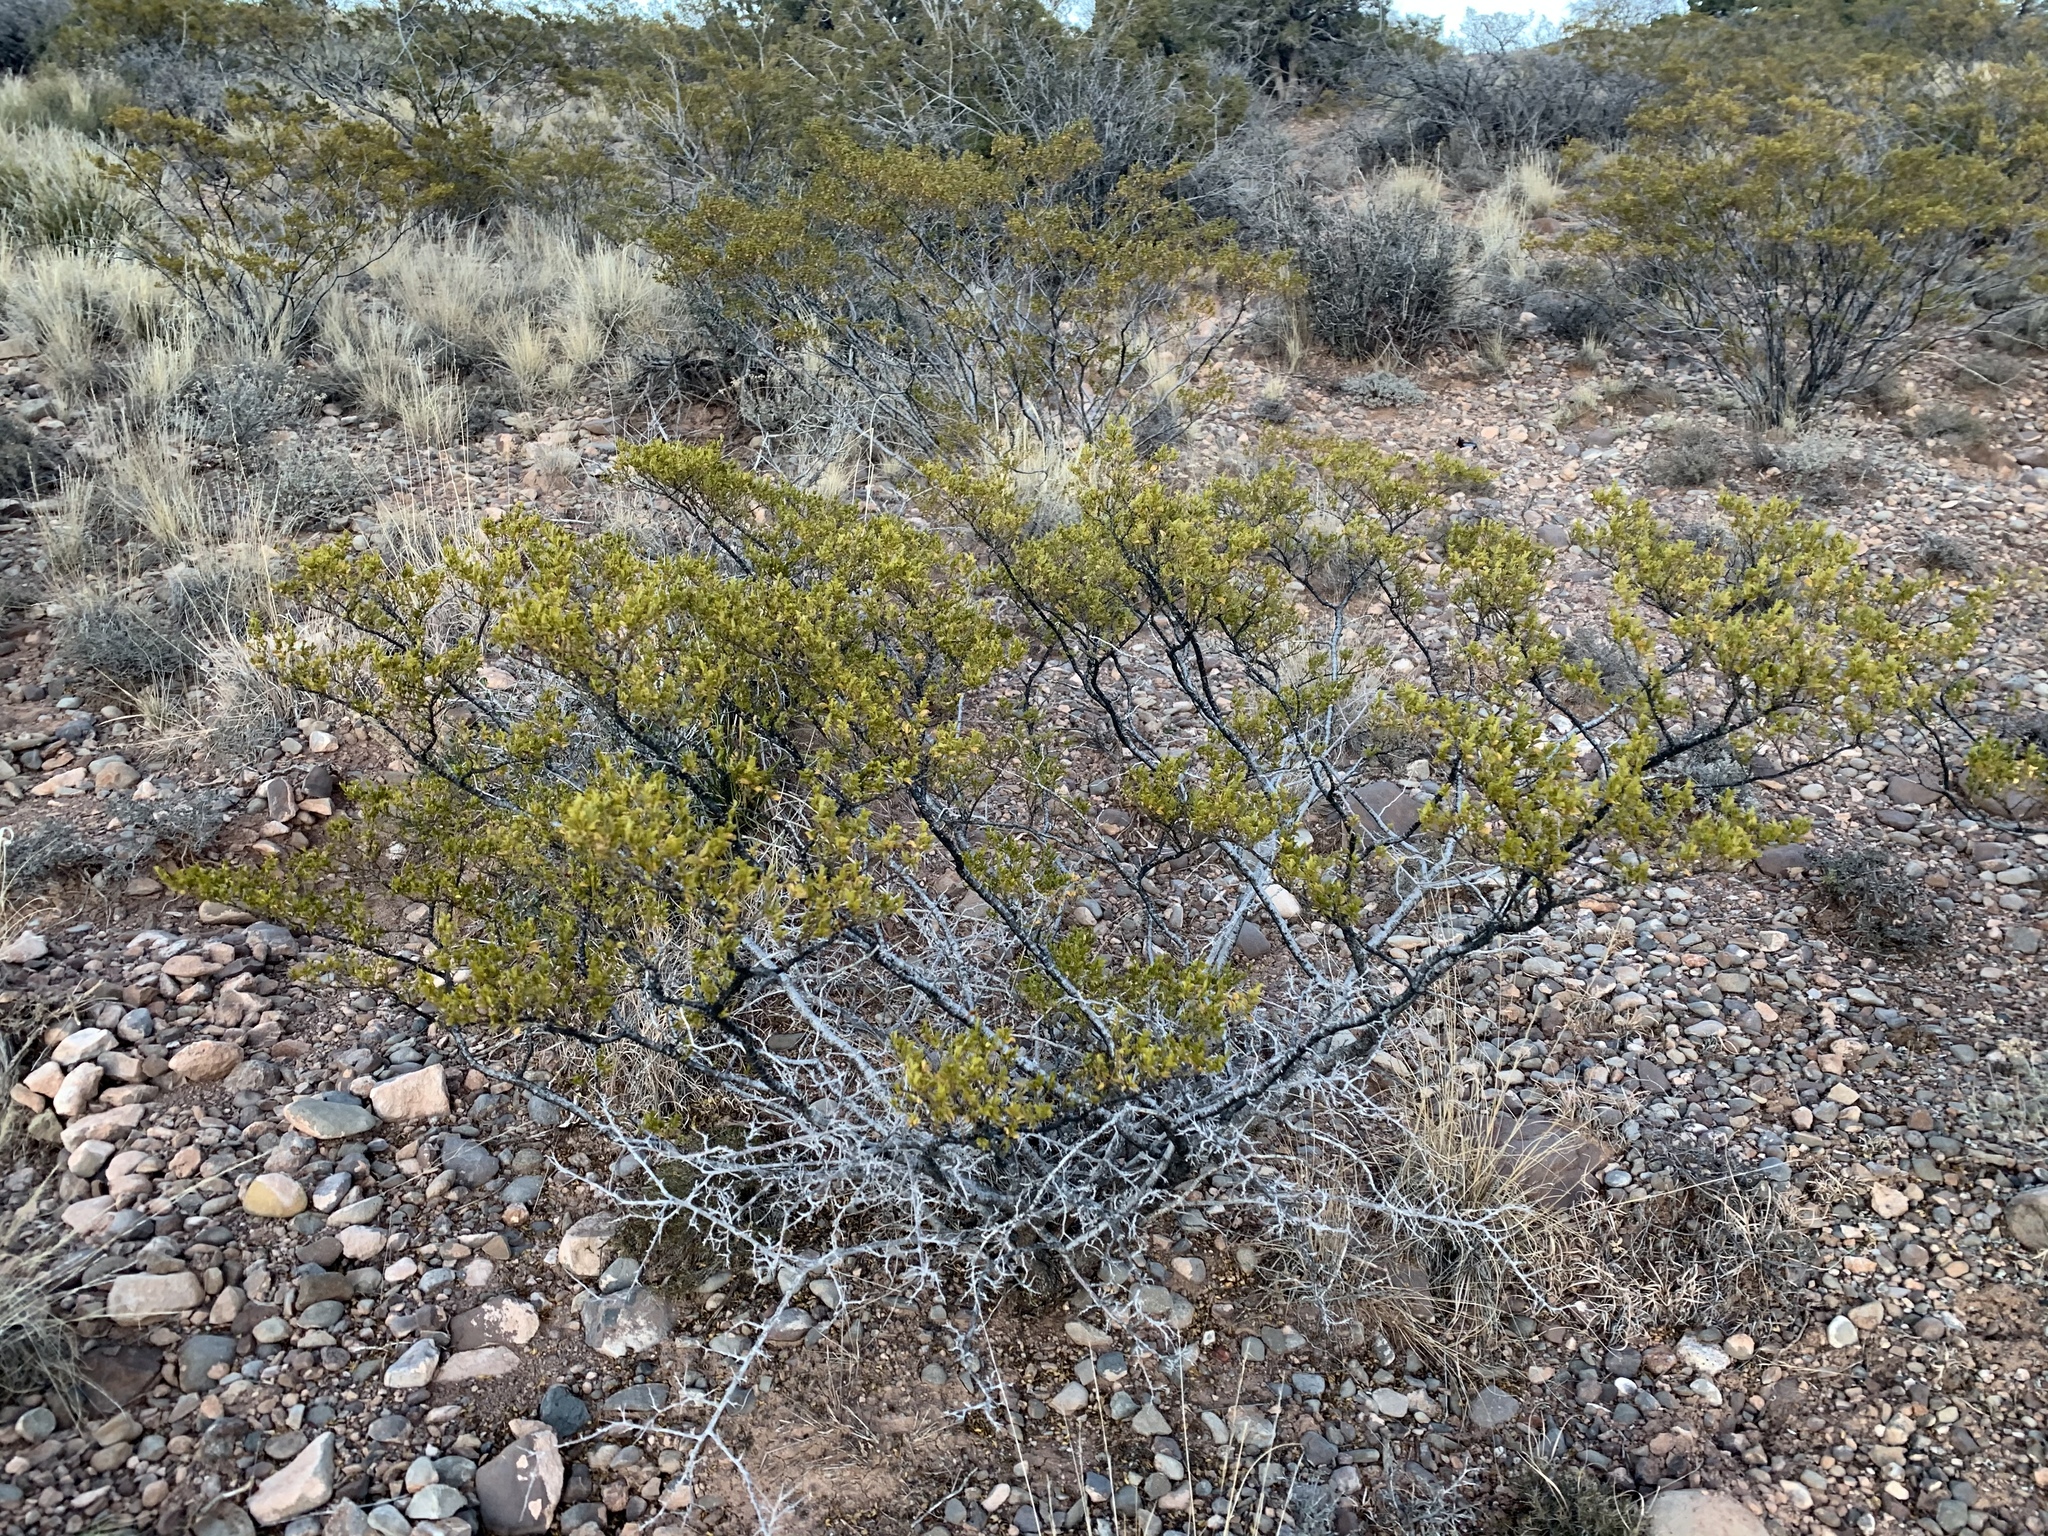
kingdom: Plantae
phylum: Tracheophyta
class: Magnoliopsida
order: Zygophyllales
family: Zygophyllaceae
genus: Larrea
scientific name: Larrea tridentata
